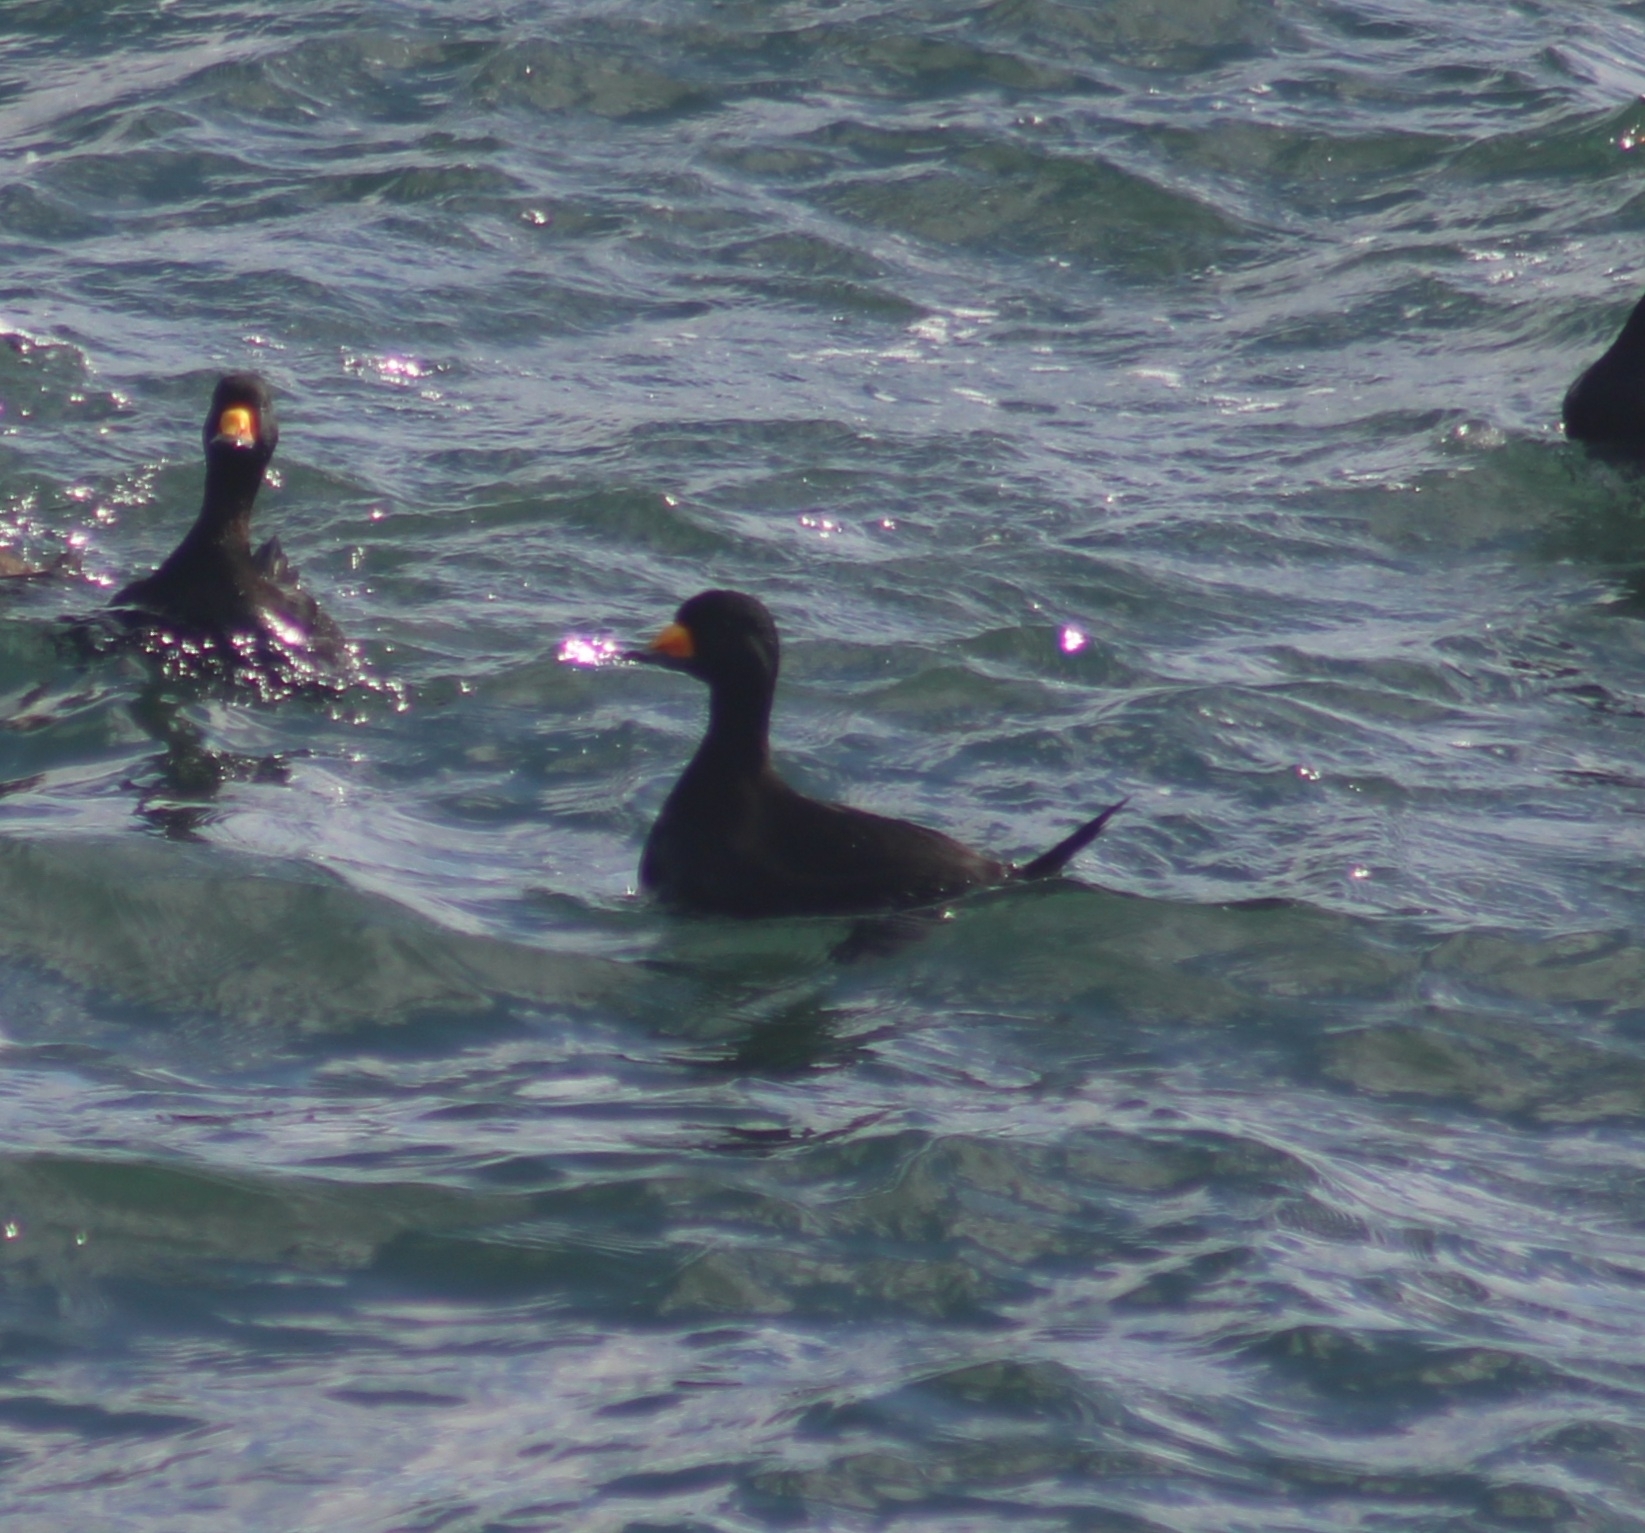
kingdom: Animalia
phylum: Chordata
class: Aves
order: Anseriformes
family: Anatidae
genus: Melanitta
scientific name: Melanitta americana
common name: Black scoter
